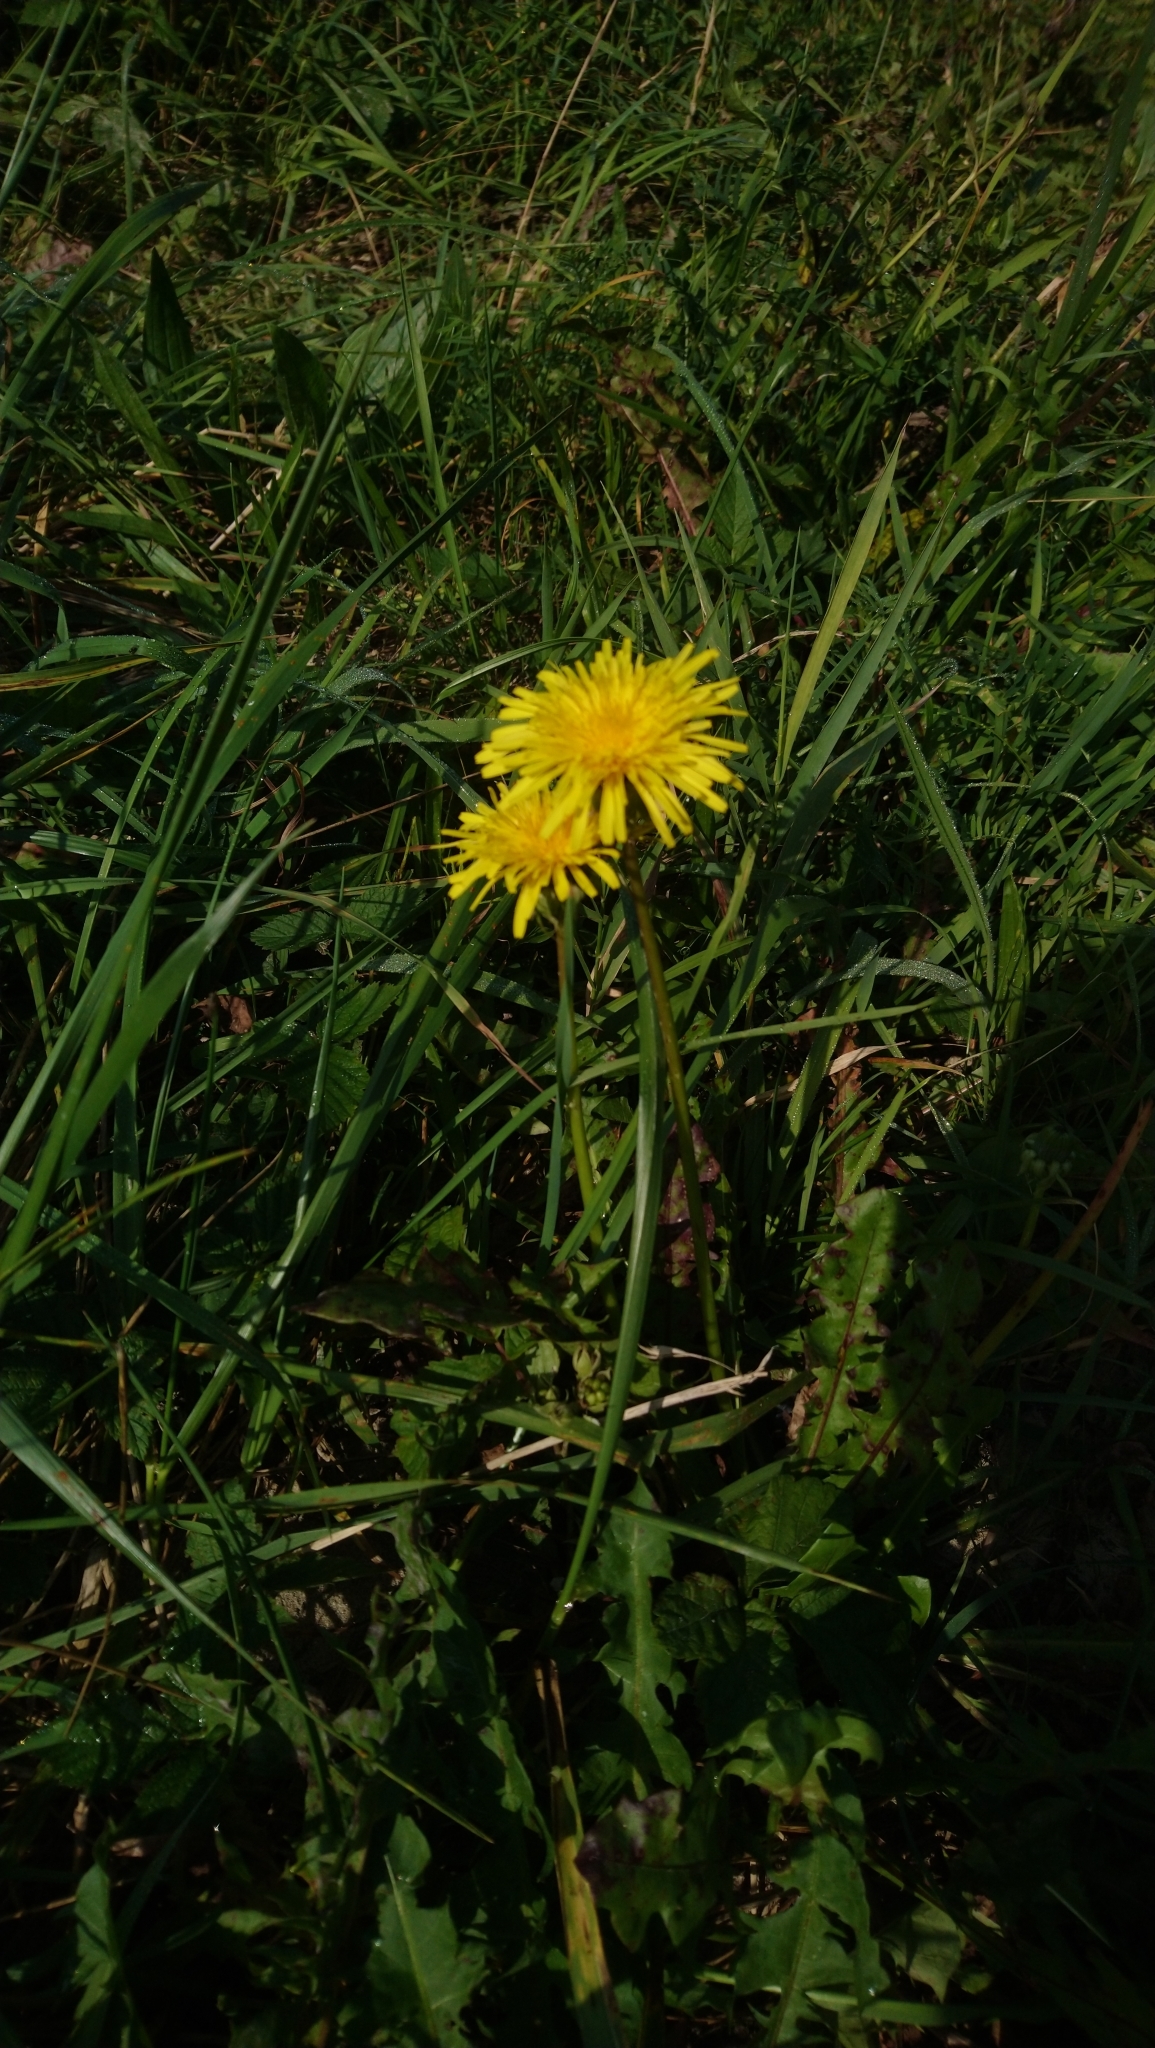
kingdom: Plantae
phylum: Tracheophyta
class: Magnoliopsida
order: Asterales
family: Asteraceae
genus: Taraxacum
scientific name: Taraxacum officinale
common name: Common dandelion
